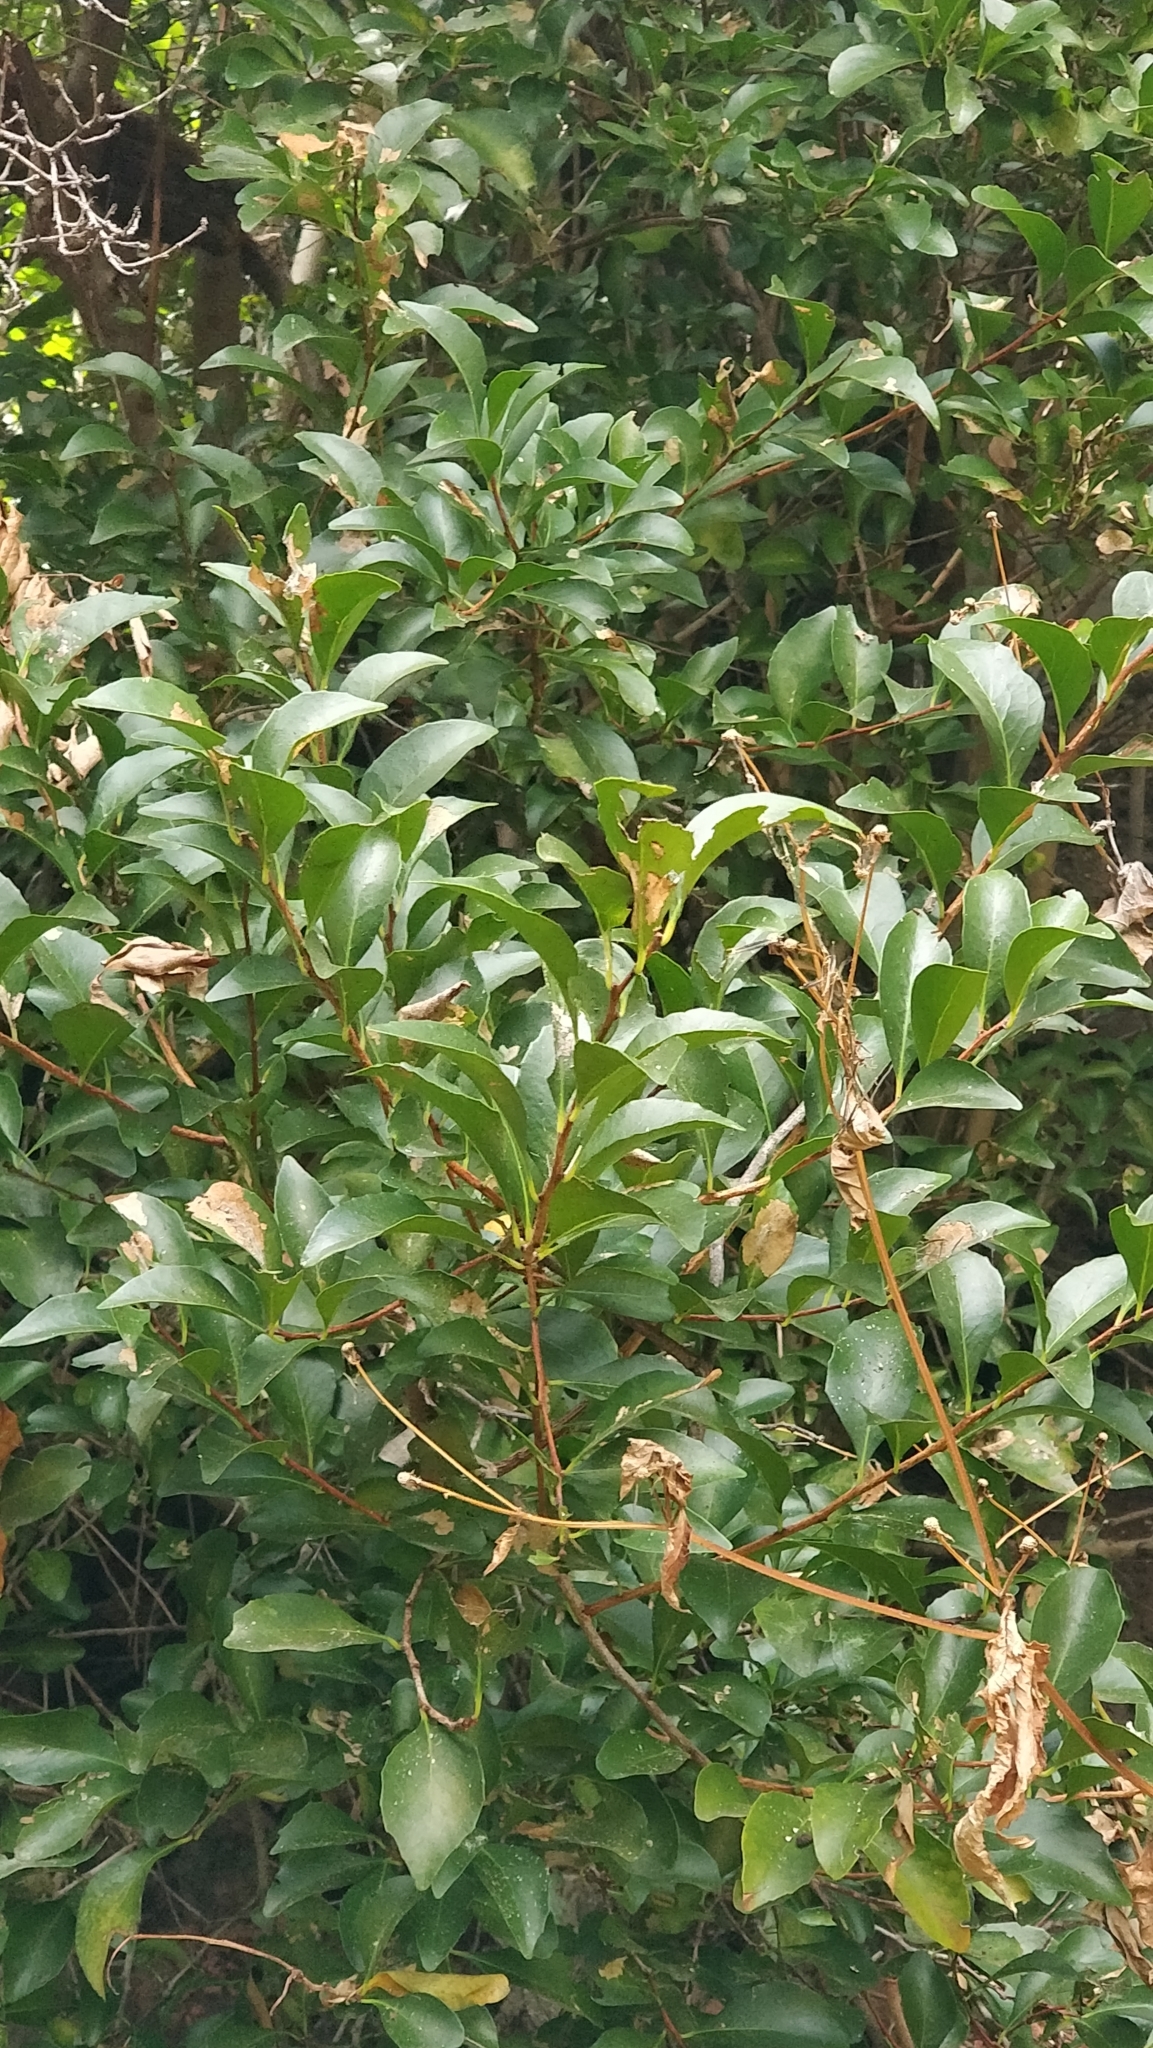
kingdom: Plantae
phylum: Tracheophyta
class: Magnoliopsida
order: Celastrales
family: Celastraceae
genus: Gymnosporia
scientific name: Gymnosporia dryandri
